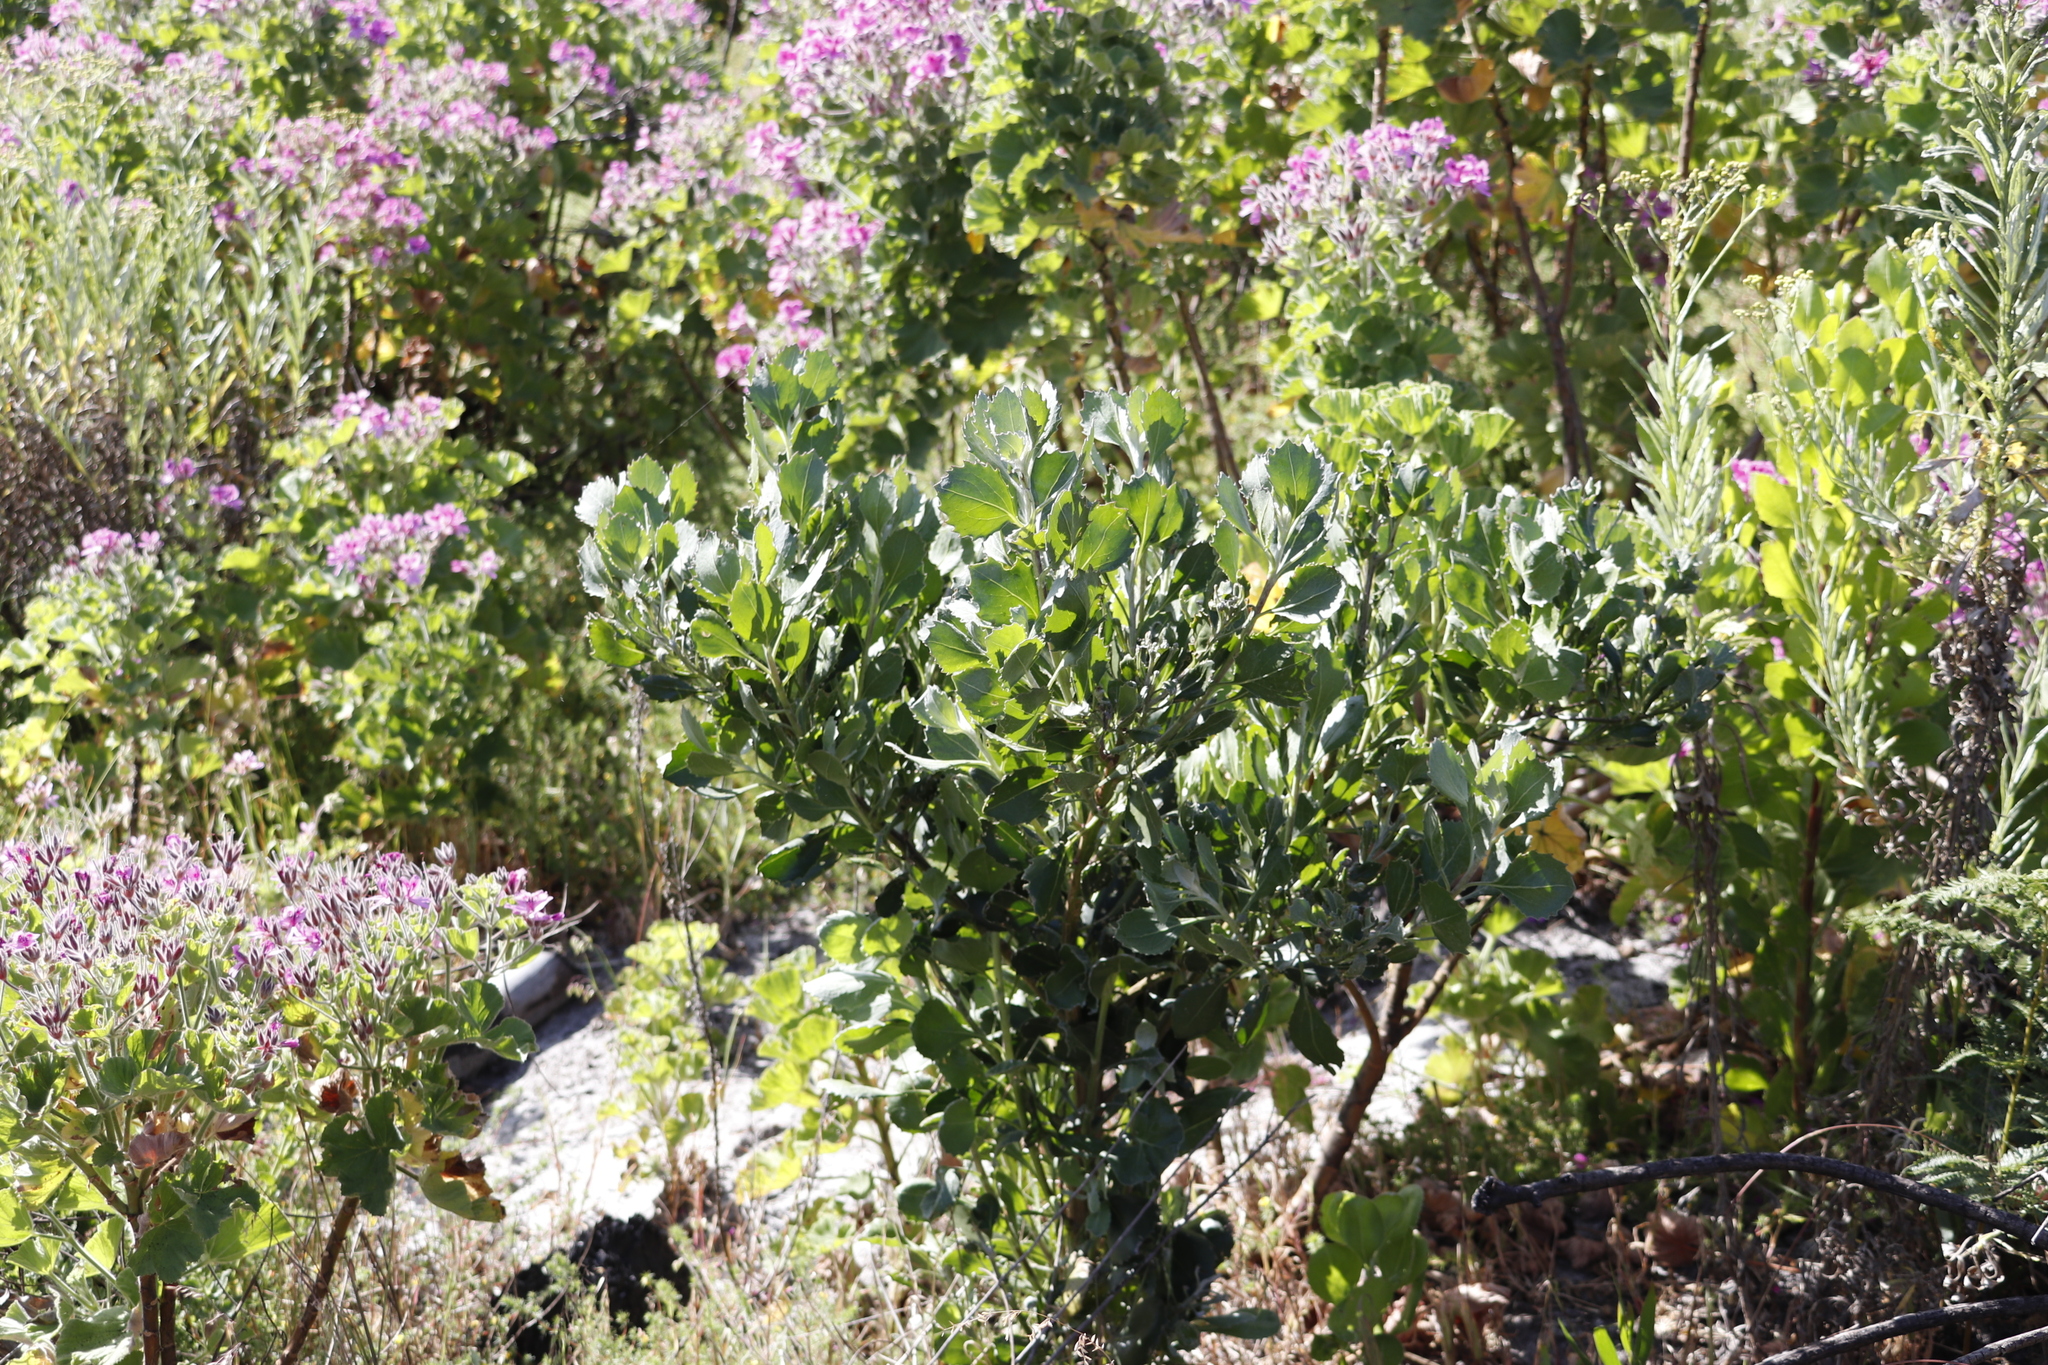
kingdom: Plantae
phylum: Tracheophyta
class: Magnoliopsida
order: Asterales
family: Asteraceae
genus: Osteospermum
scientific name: Osteospermum moniliferum
